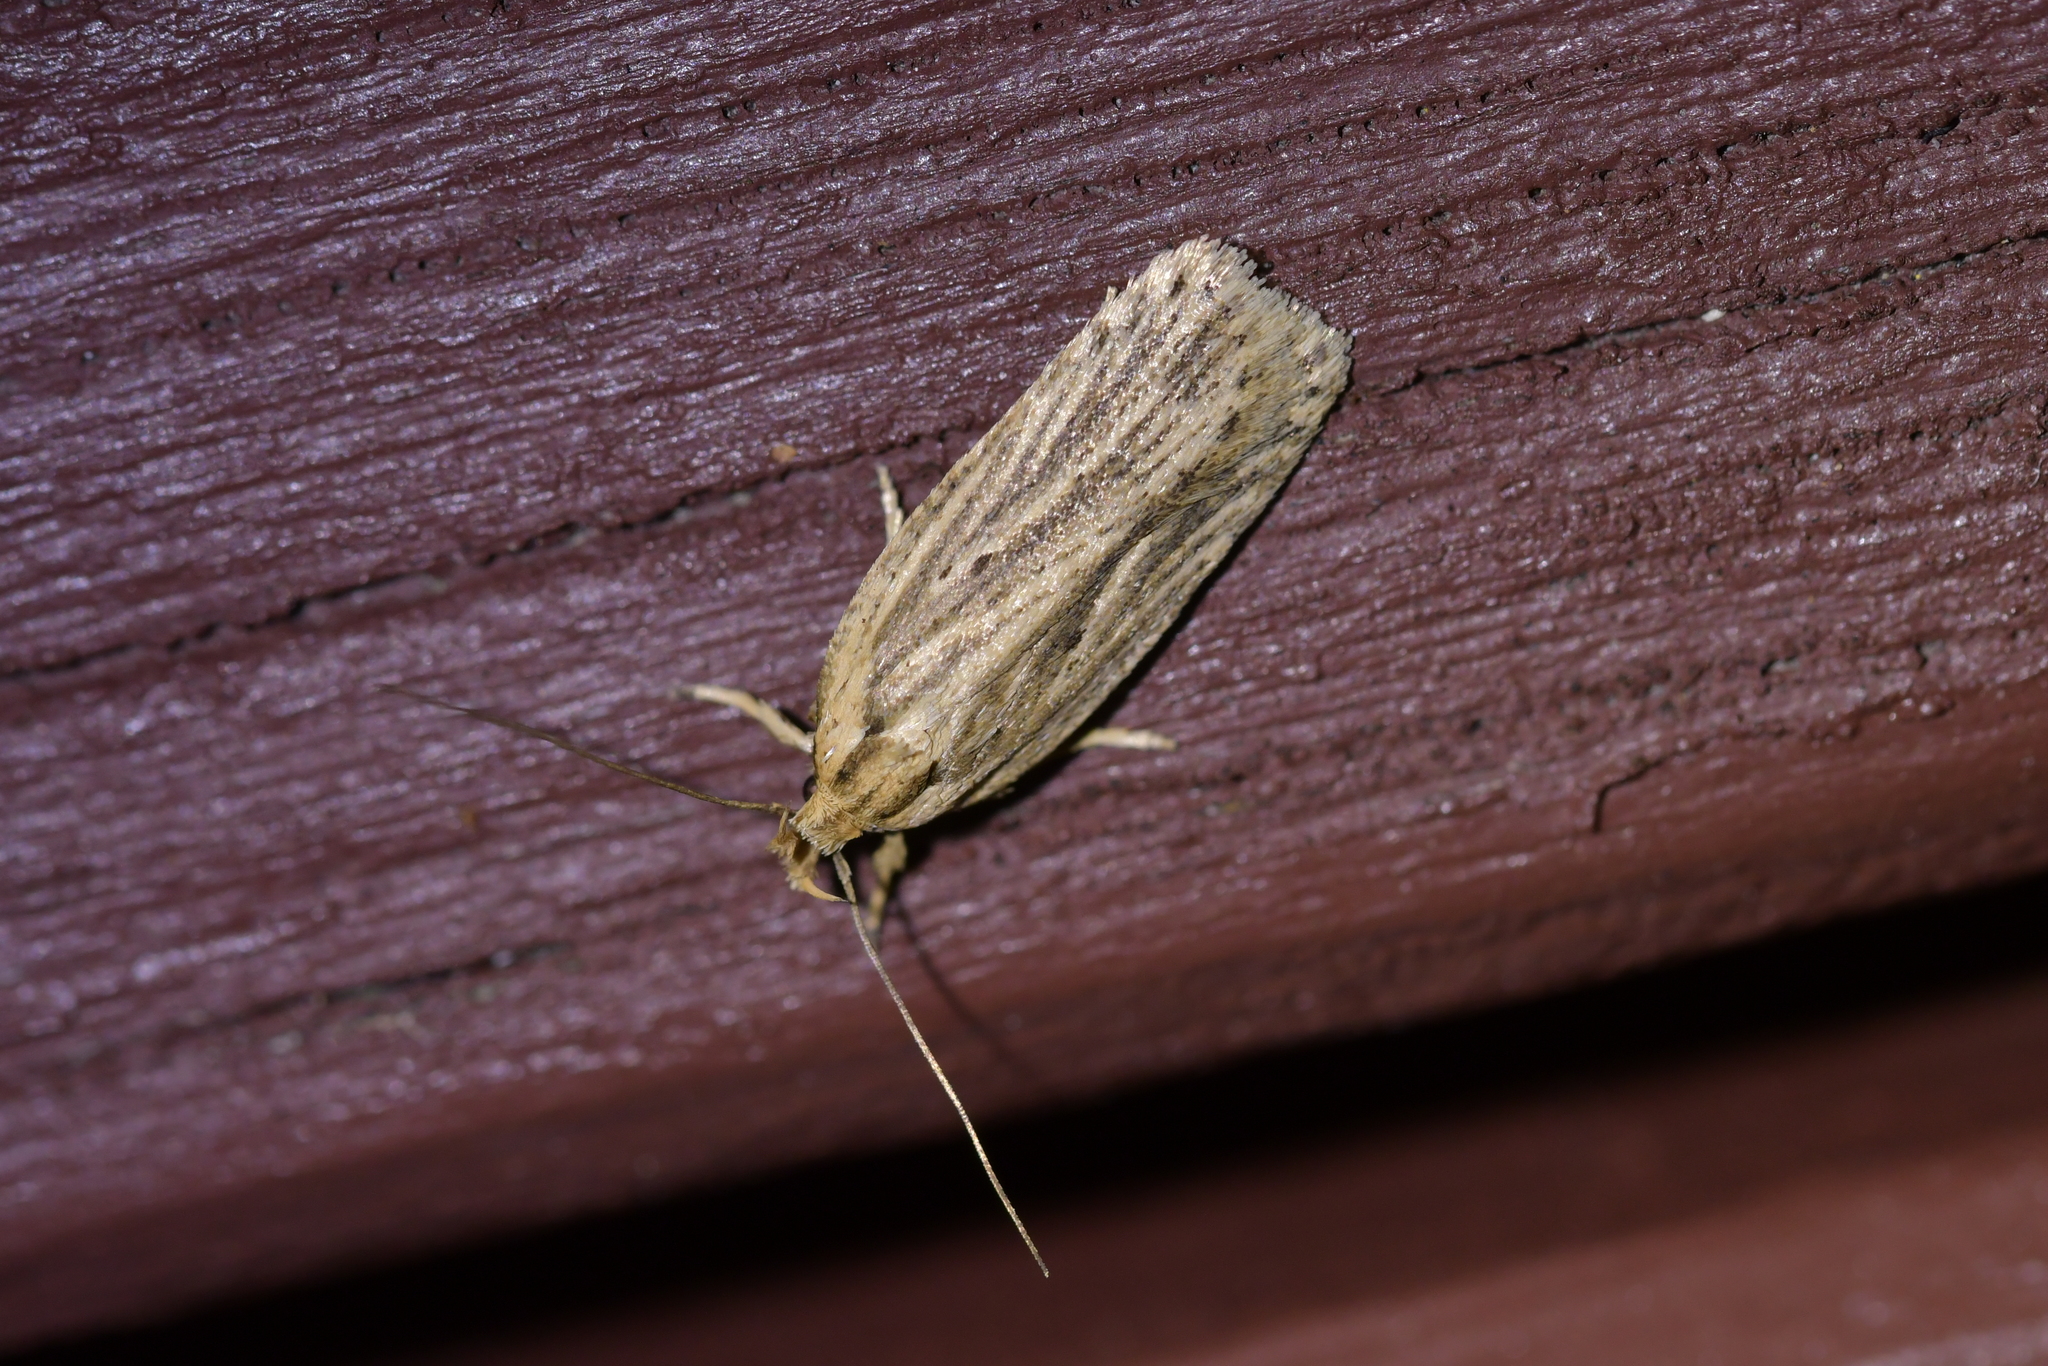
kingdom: Animalia
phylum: Arthropoda
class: Insecta
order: Lepidoptera
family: Depressariidae
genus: Agonopterix
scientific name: Agonopterix
